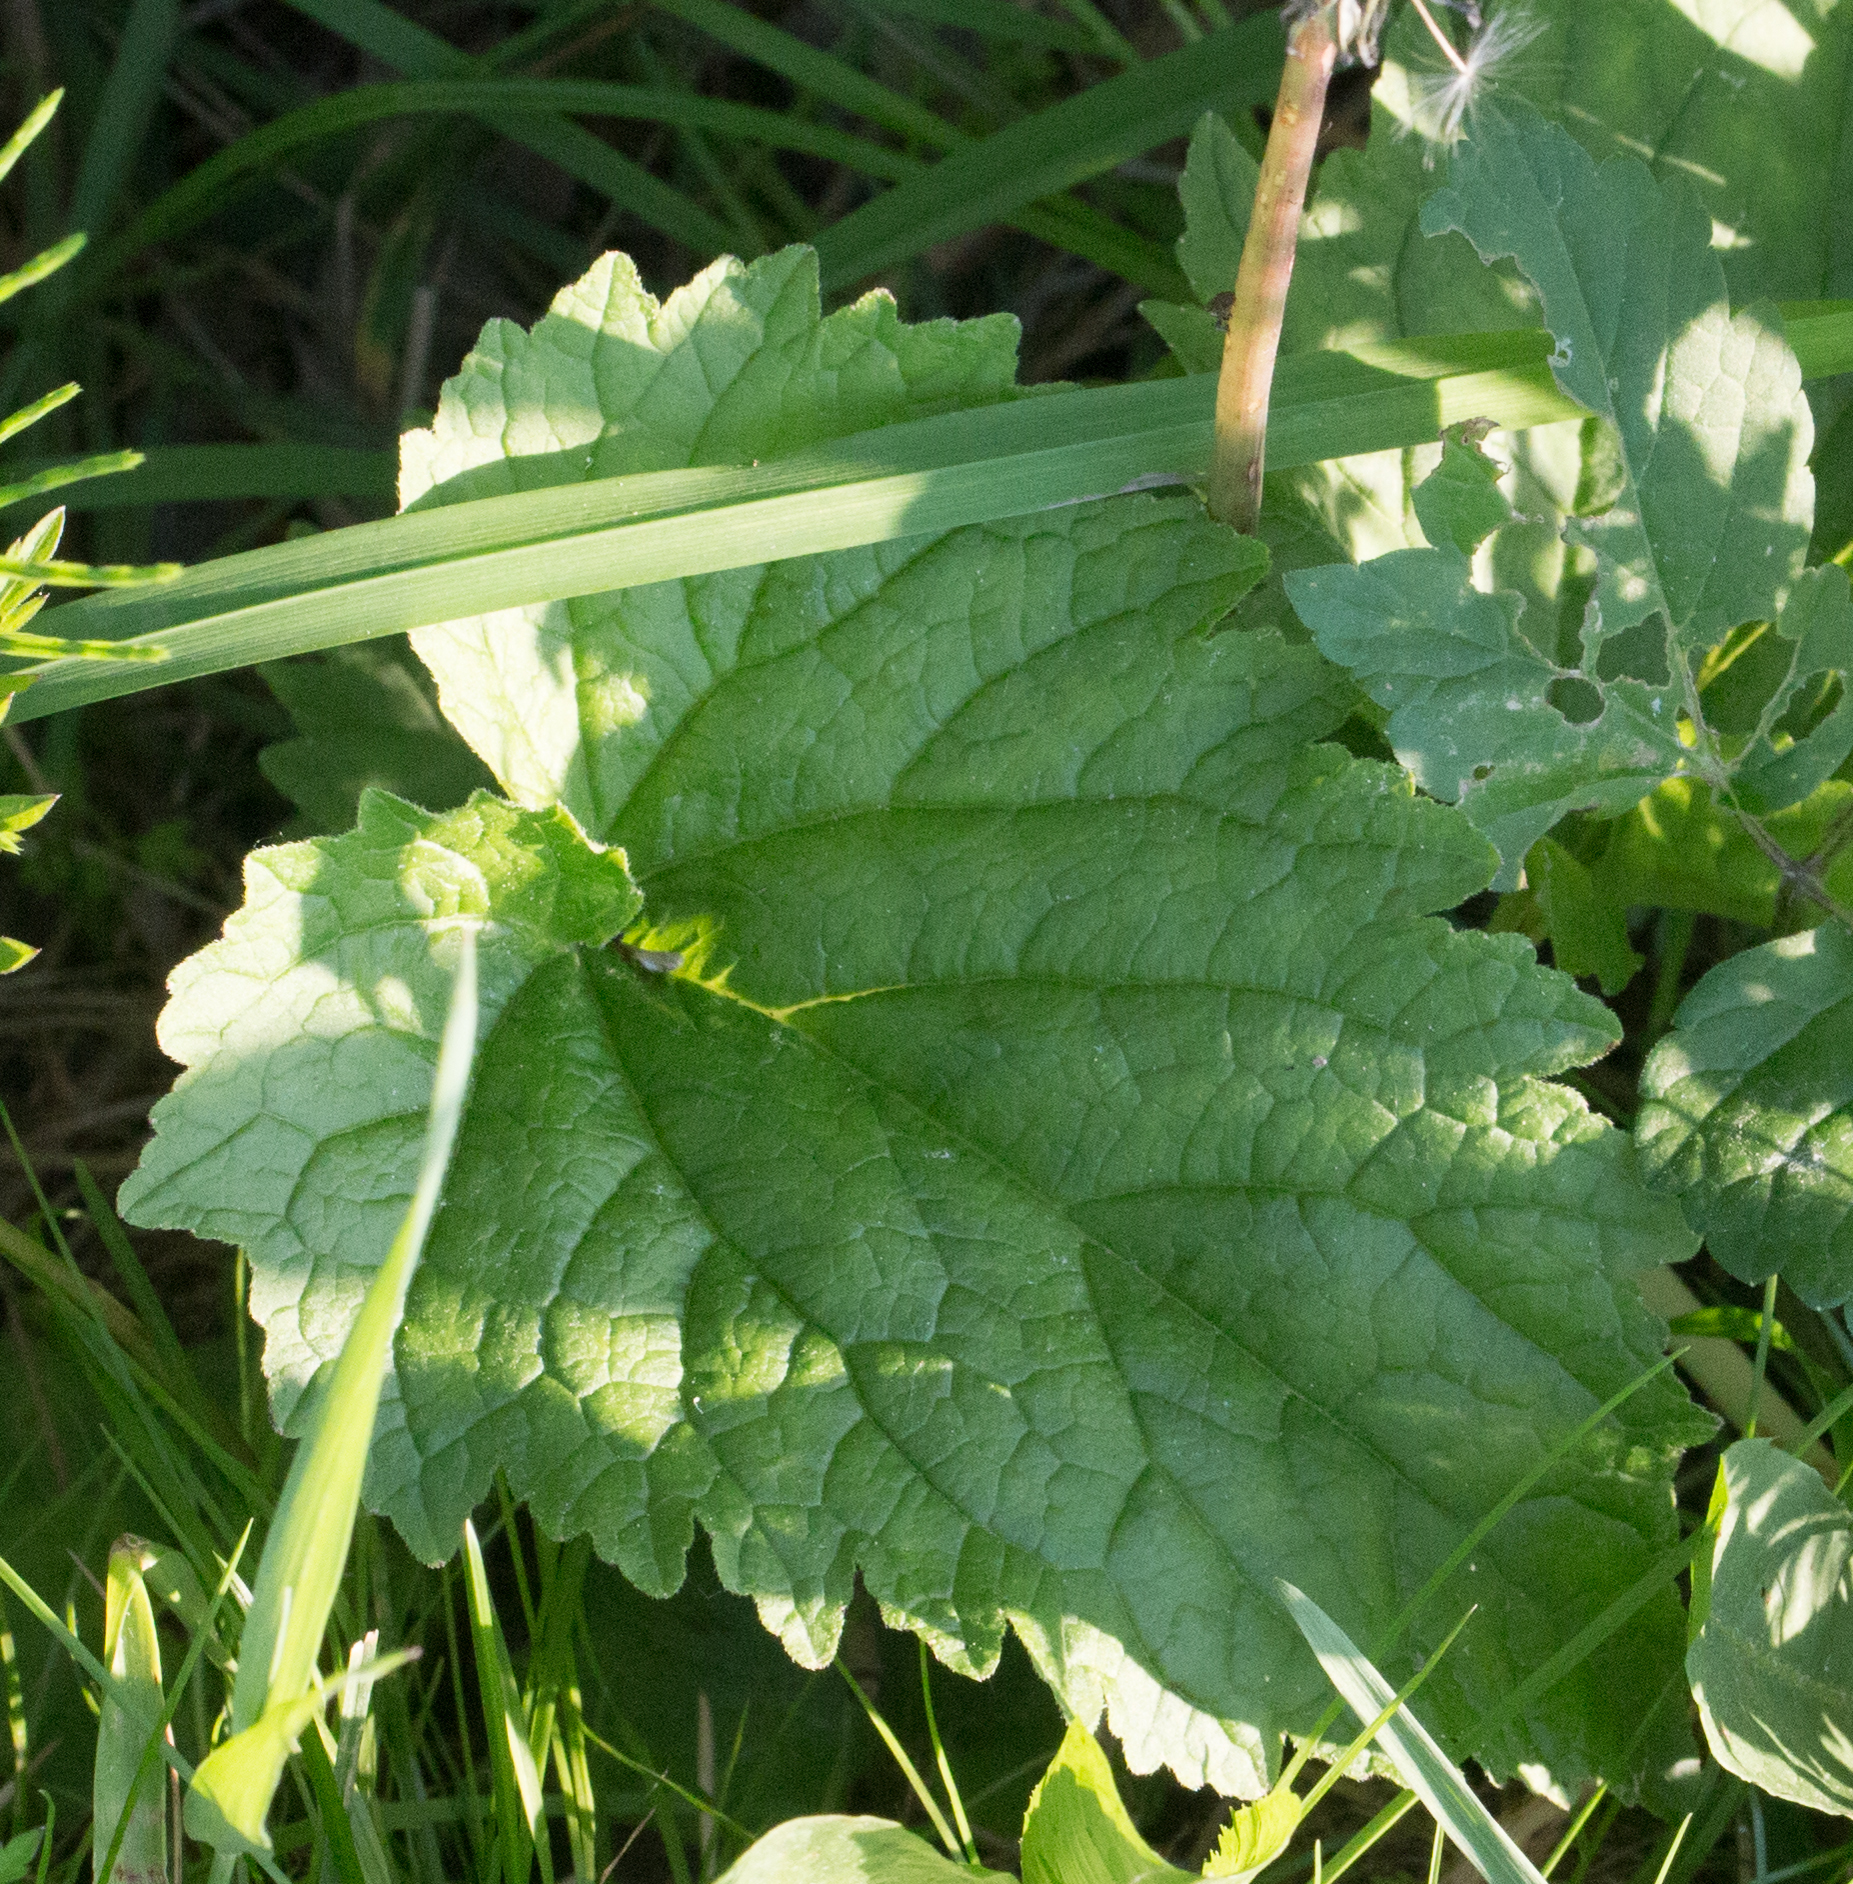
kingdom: Plantae
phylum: Tracheophyta
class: Magnoliopsida
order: Asterales
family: Campanulaceae
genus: Campanula
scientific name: Campanula trachelium
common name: Nettle-leaved bellflower
